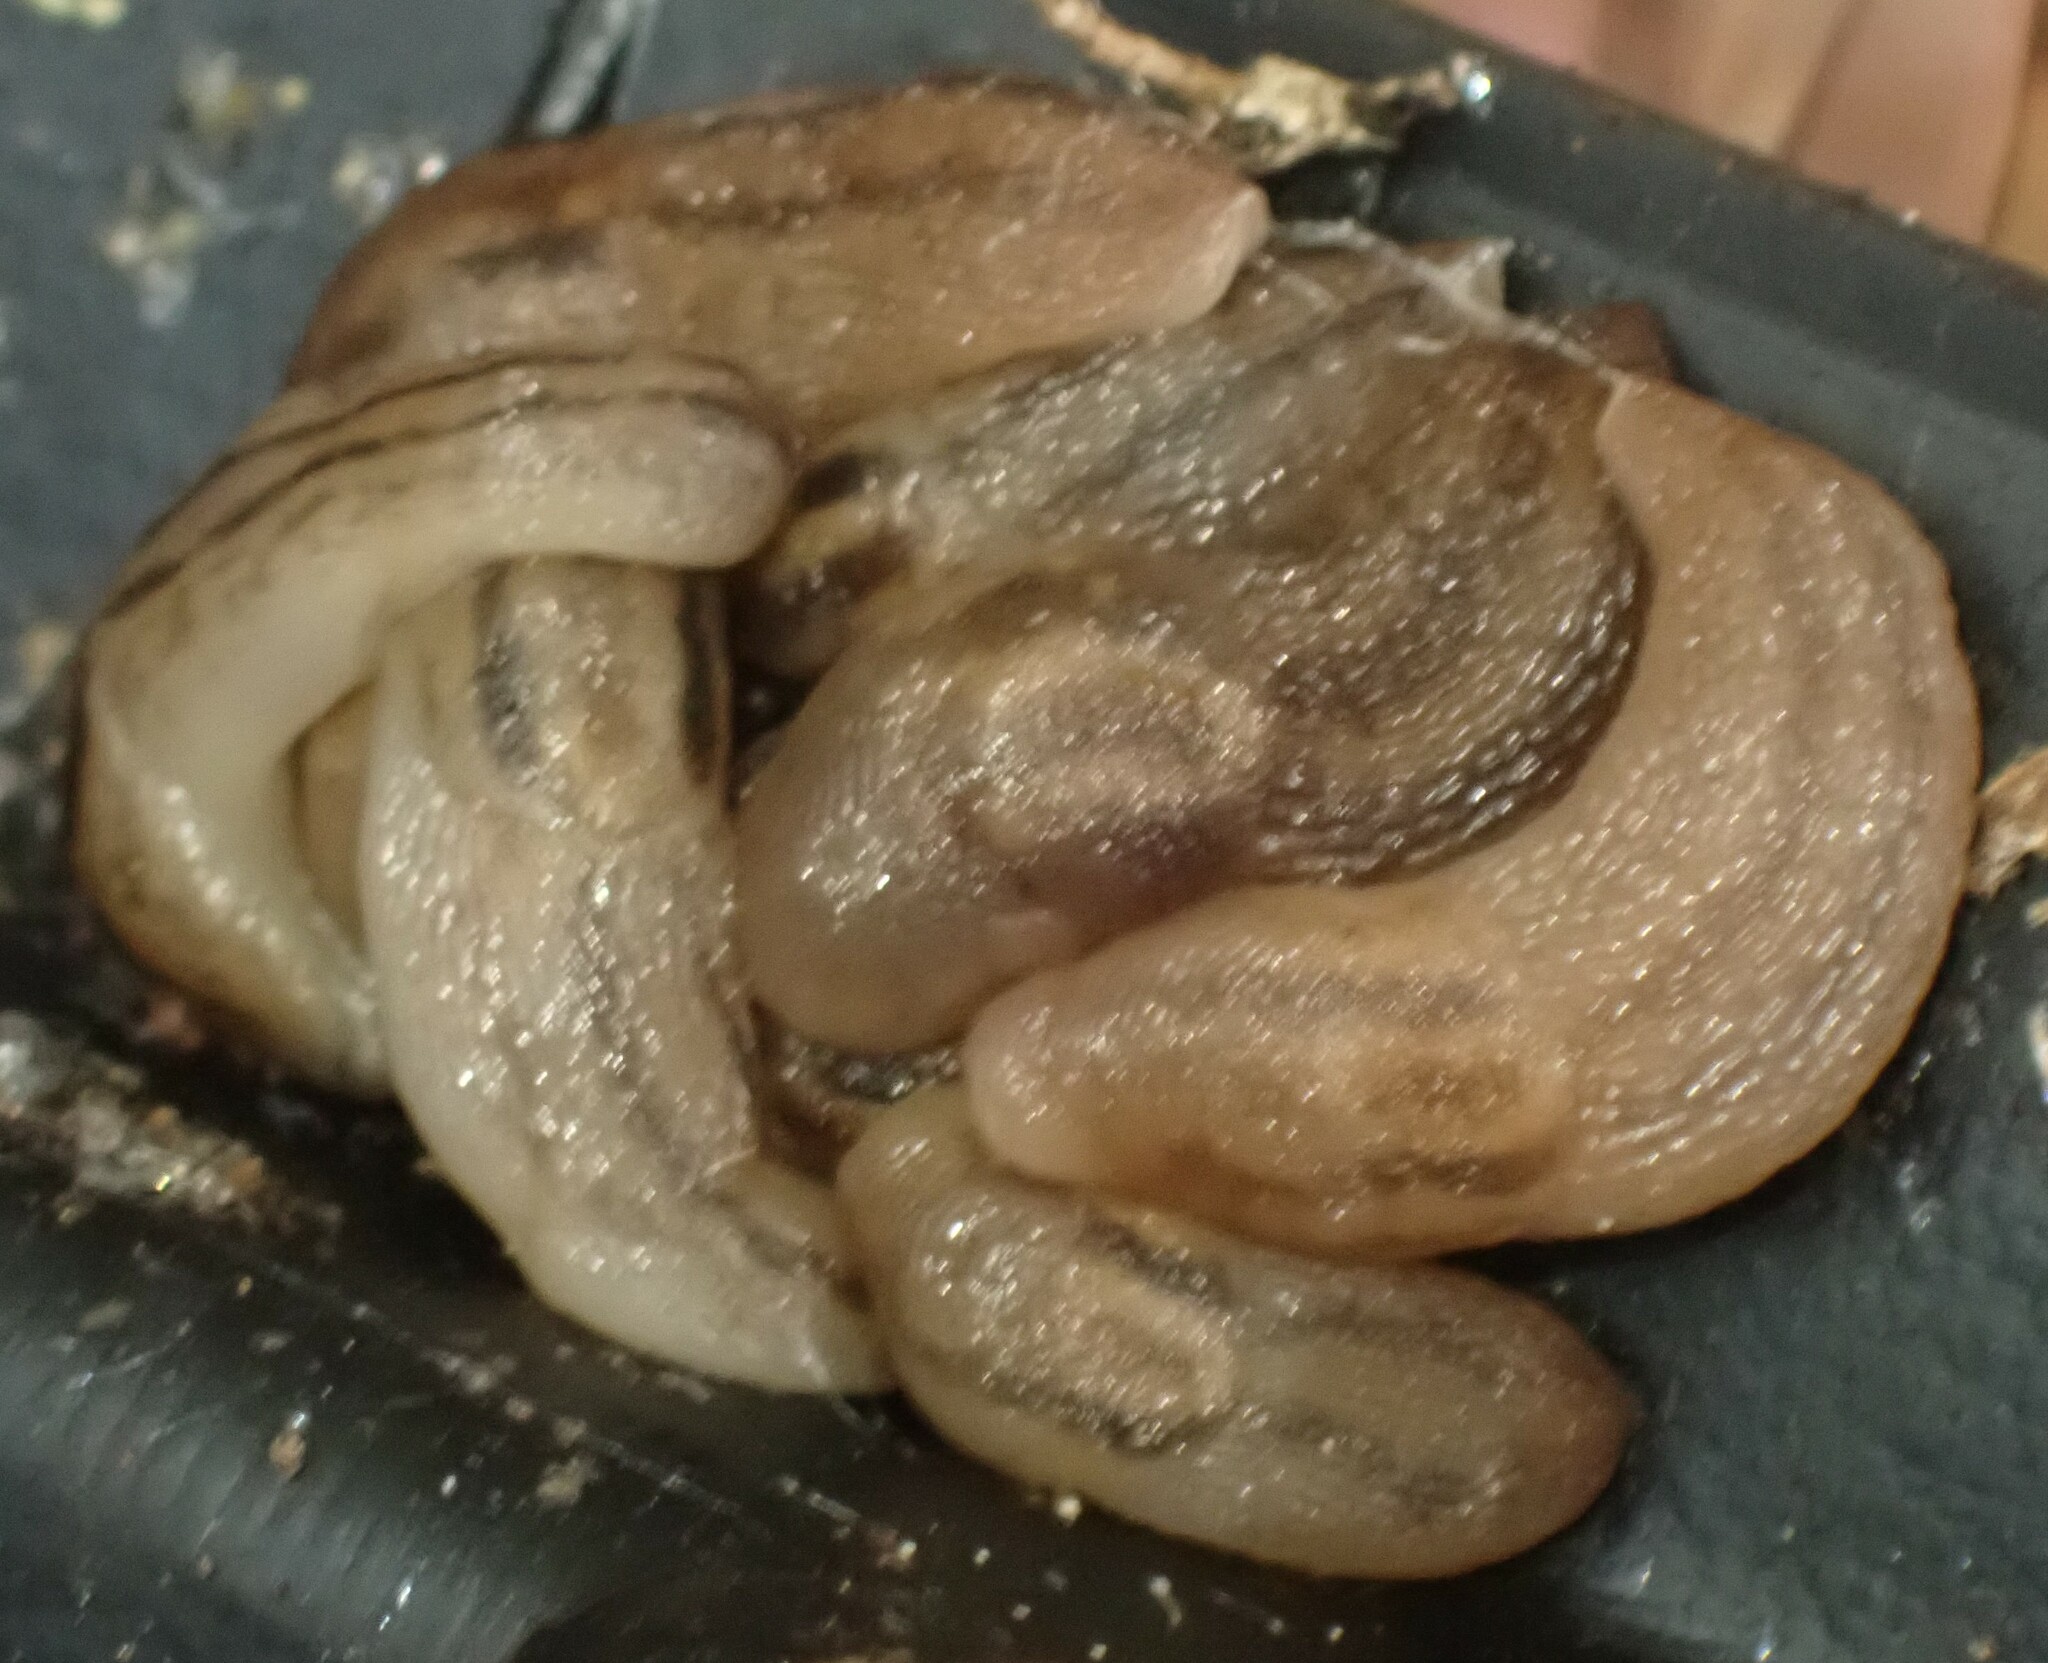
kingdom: Animalia
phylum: Mollusca
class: Gastropoda
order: Stylommatophora
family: Limacidae
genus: Ambigolimax
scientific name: Ambigolimax
